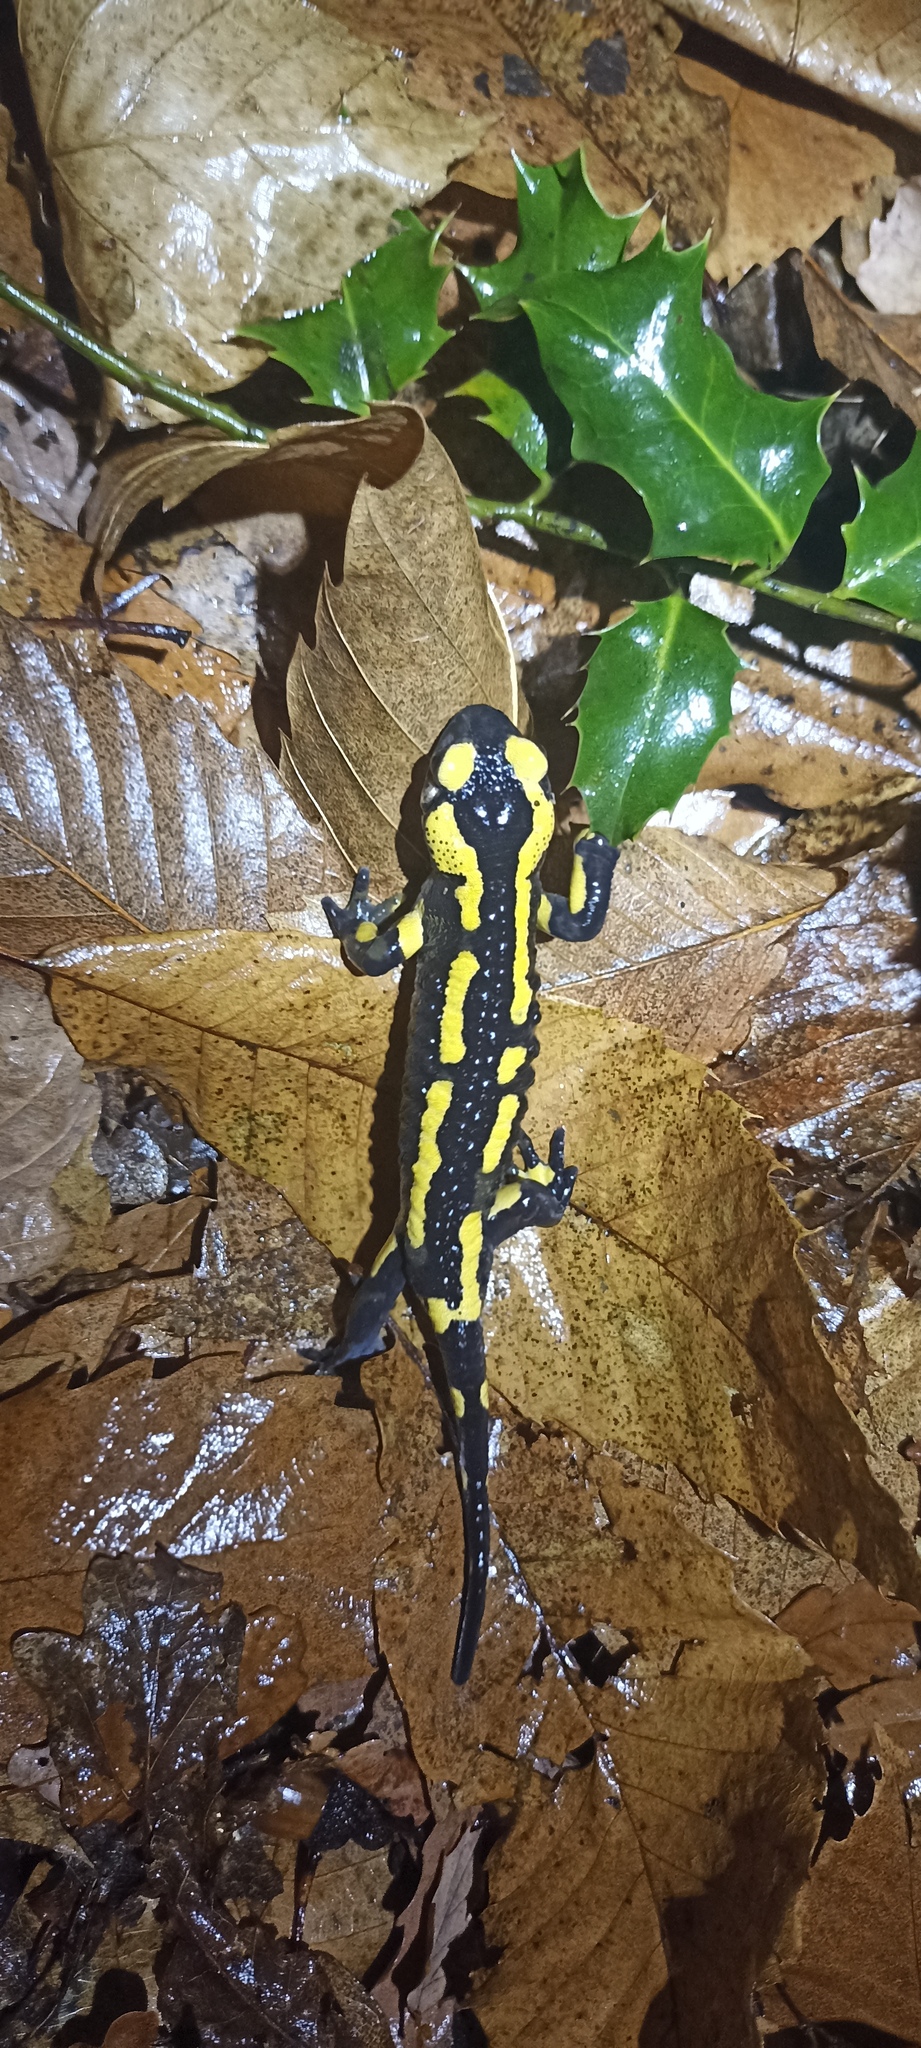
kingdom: Animalia
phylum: Chordata
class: Amphibia
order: Caudata
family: Salamandridae
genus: Salamandra
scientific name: Salamandra salamandra
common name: Fire salamander
